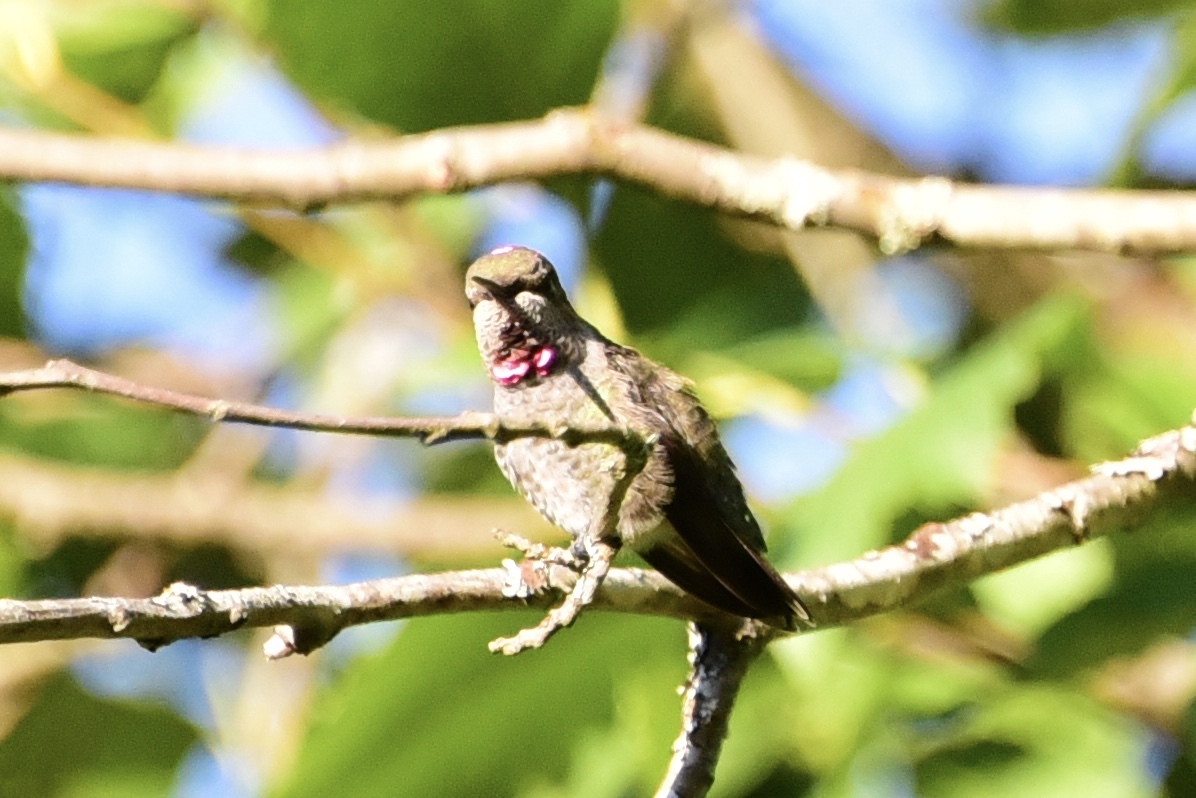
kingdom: Animalia
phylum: Chordata
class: Aves
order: Apodiformes
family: Trochilidae
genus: Calypte
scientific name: Calypte anna
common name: Anna's hummingbird
